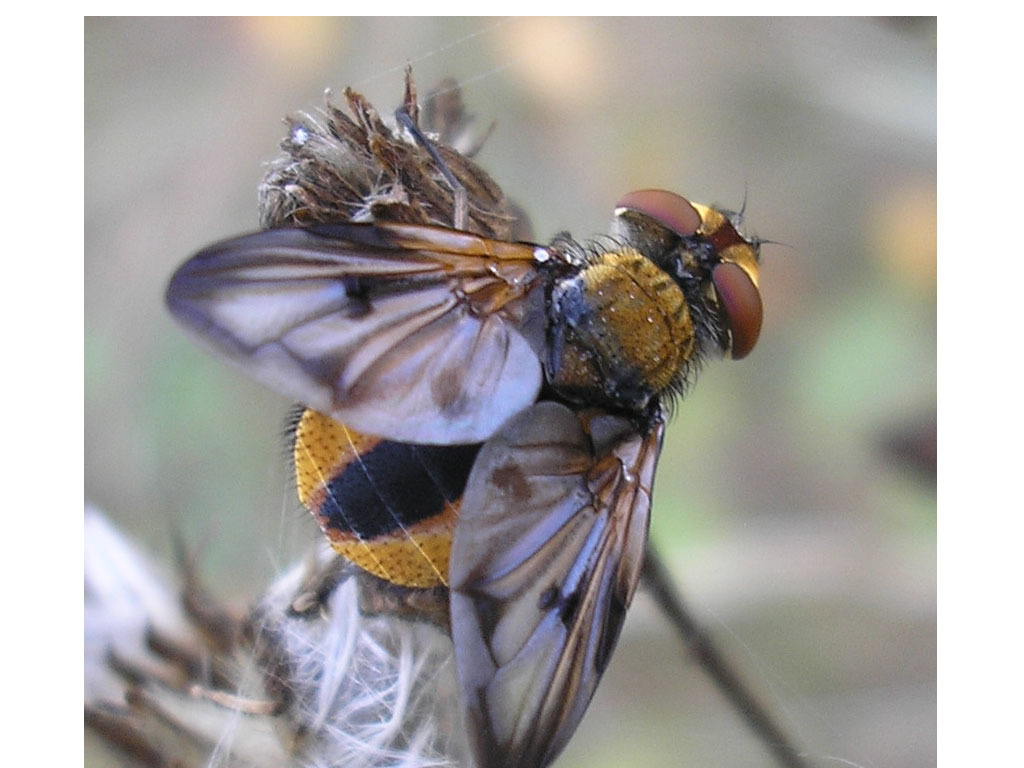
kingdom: Animalia
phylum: Arthropoda
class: Insecta
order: Diptera
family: Tachinidae
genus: Ectophasia
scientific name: Ectophasia crassipennis
